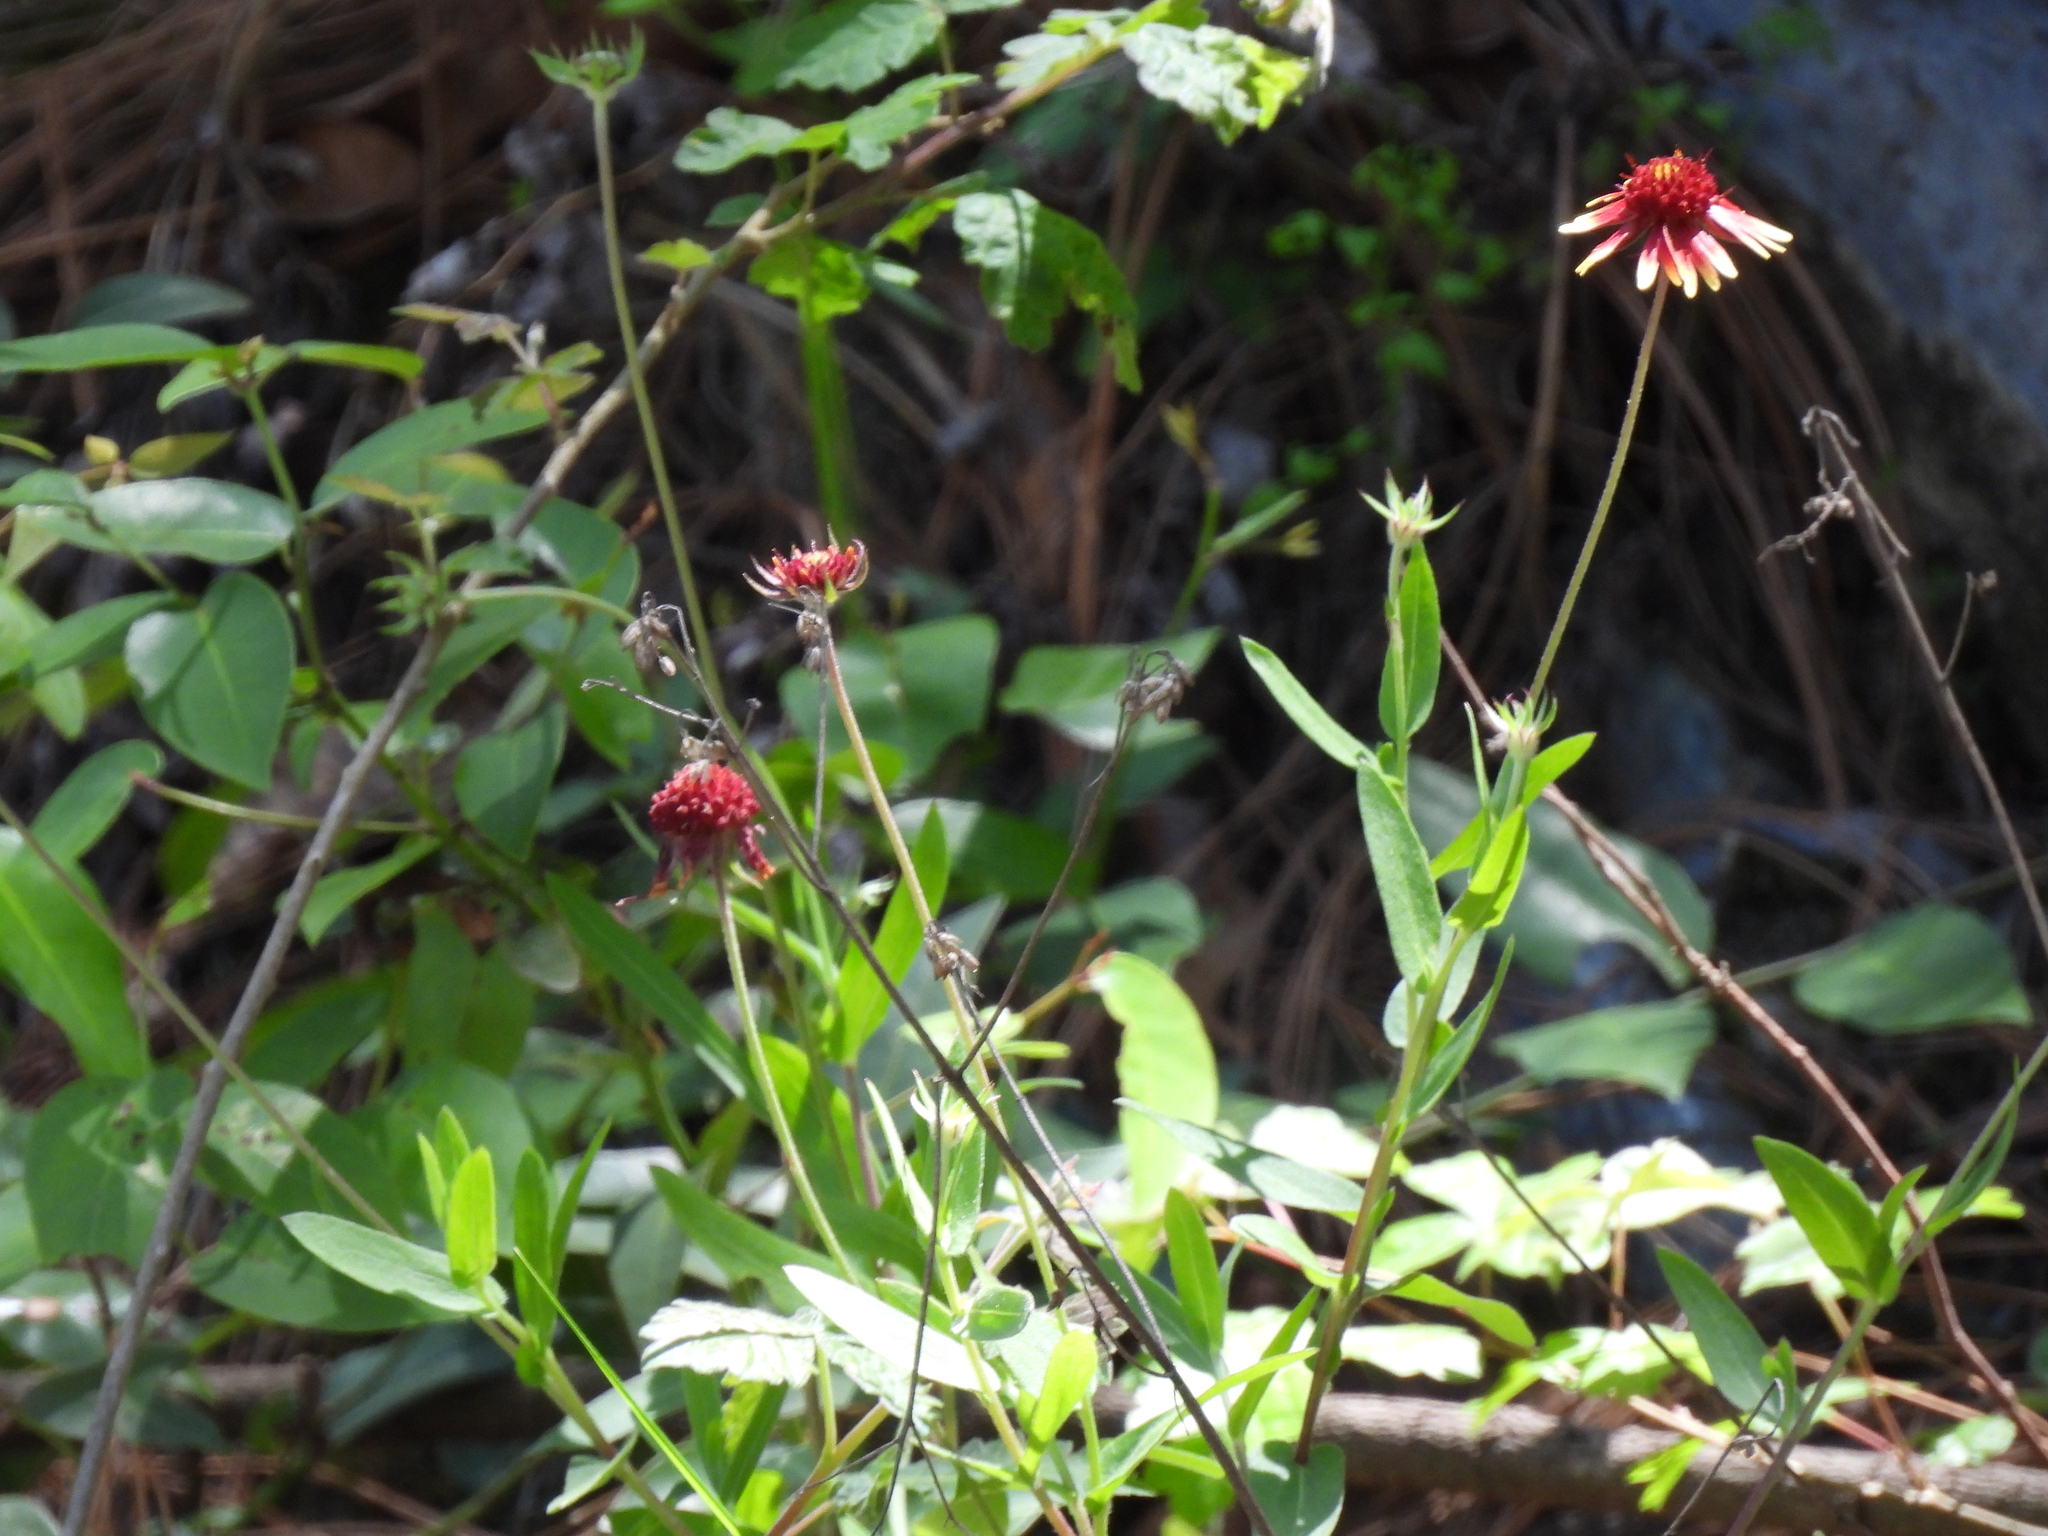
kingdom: Plantae
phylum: Tracheophyta
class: Magnoliopsida
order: Asterales
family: Asteraceae
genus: Gaillardia
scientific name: Gaillardia mexicana
